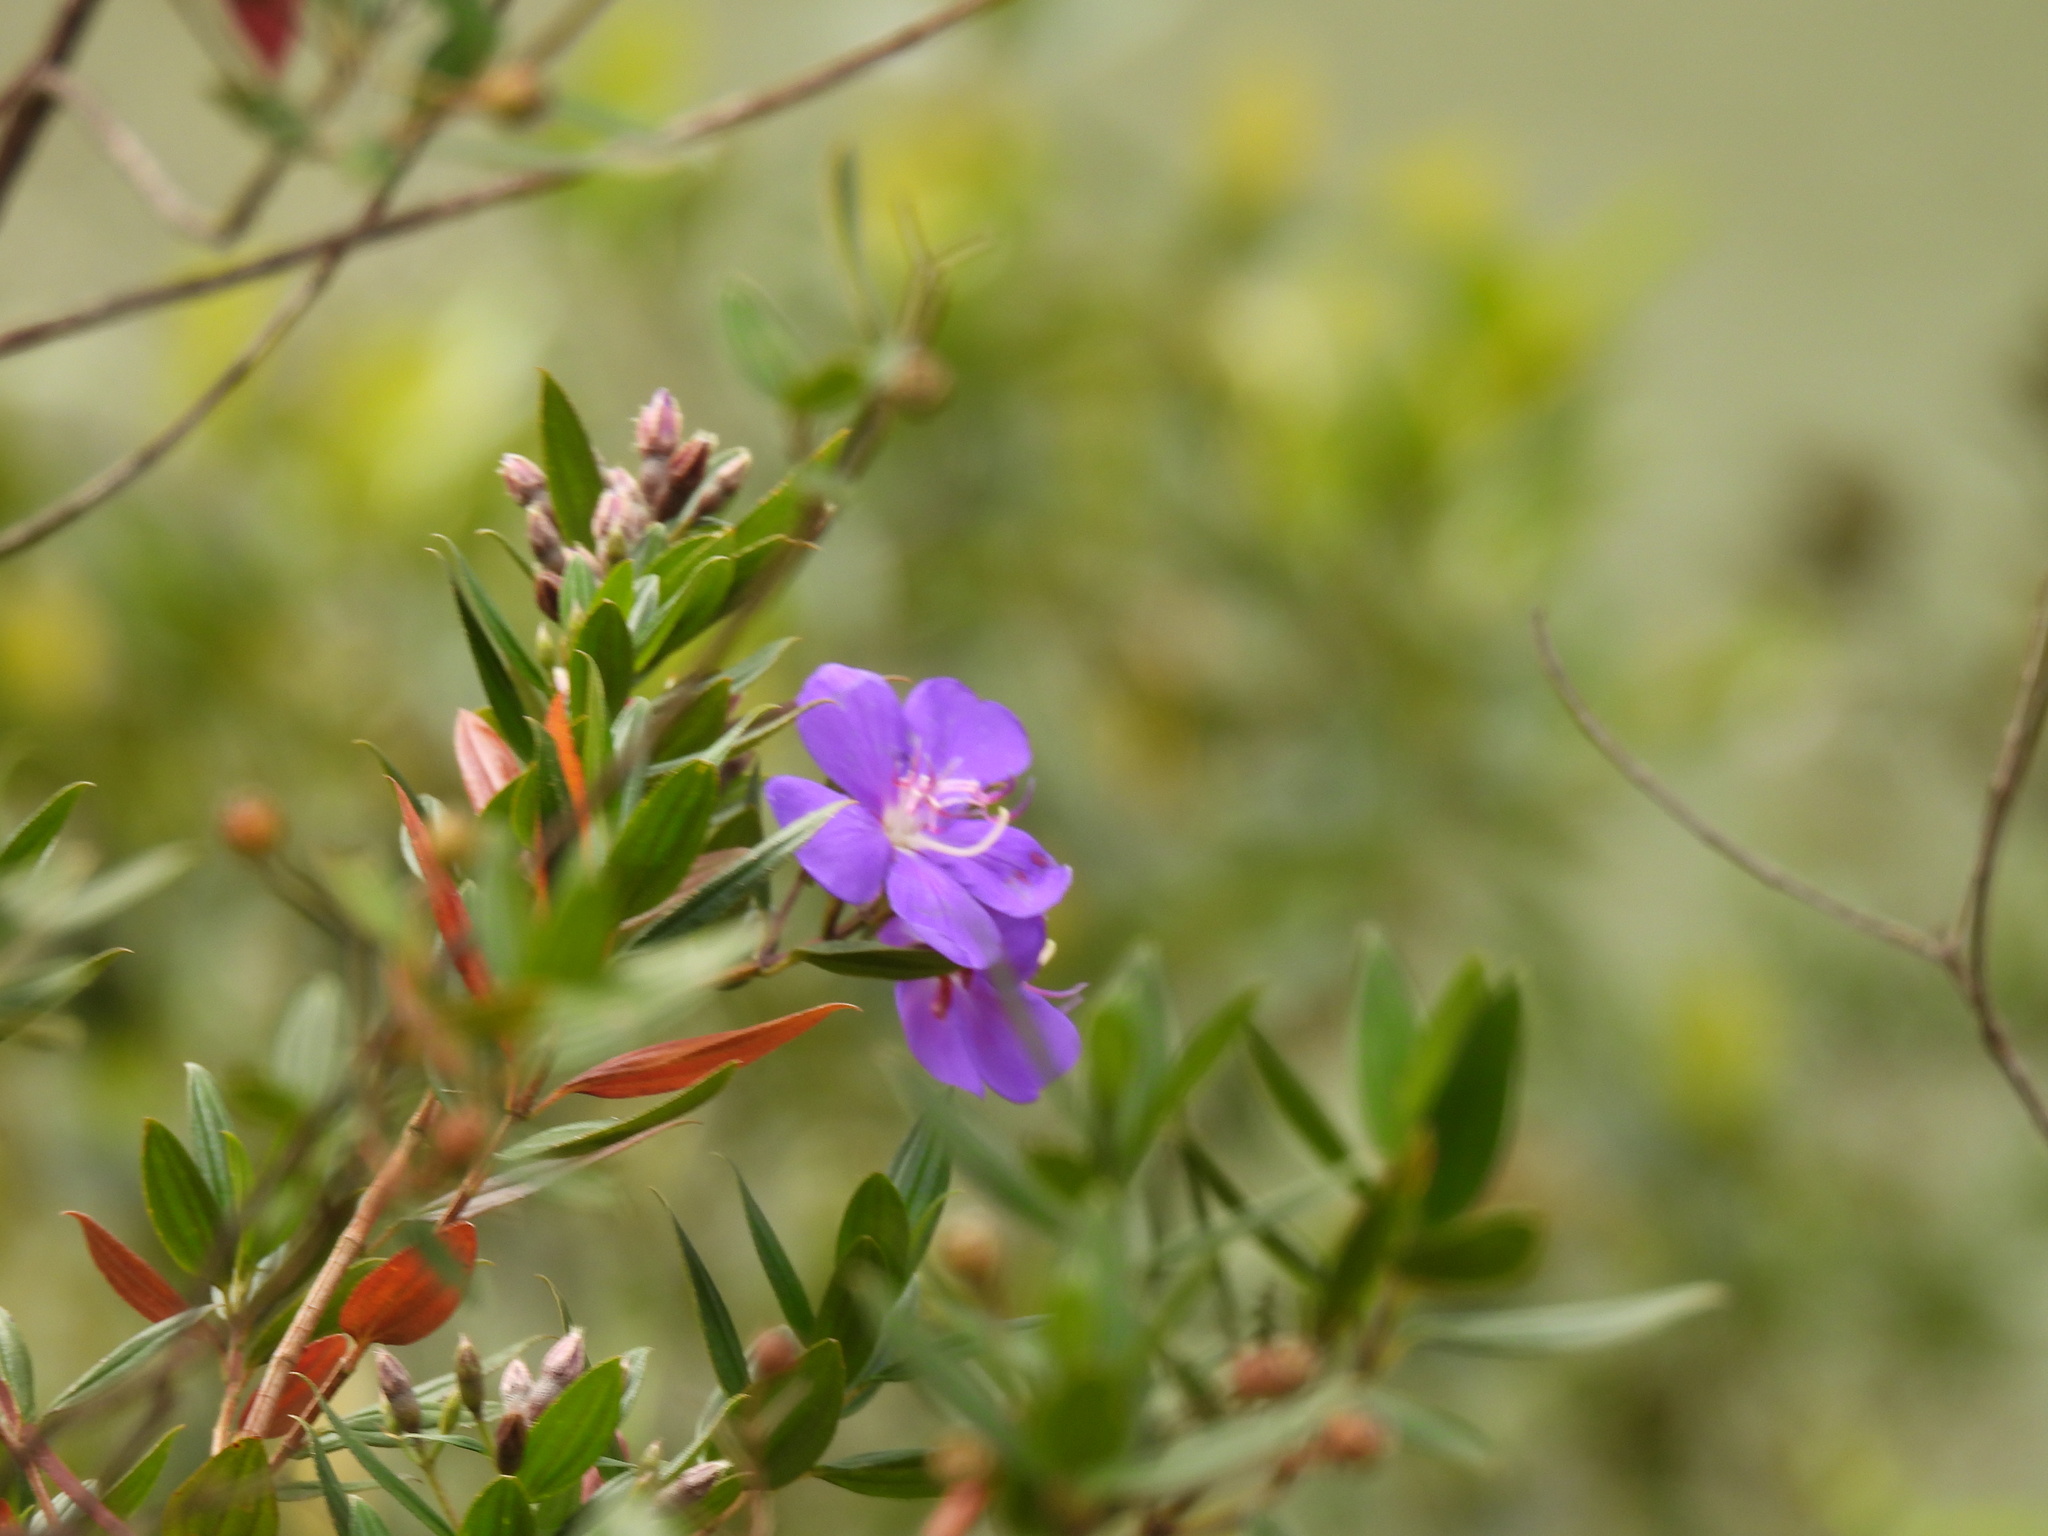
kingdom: Plantae
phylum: Tracheophyta
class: Magnoliopsida
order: Myrtales
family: Melastomataceae
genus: Pleroma
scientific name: Pleroma martiale
